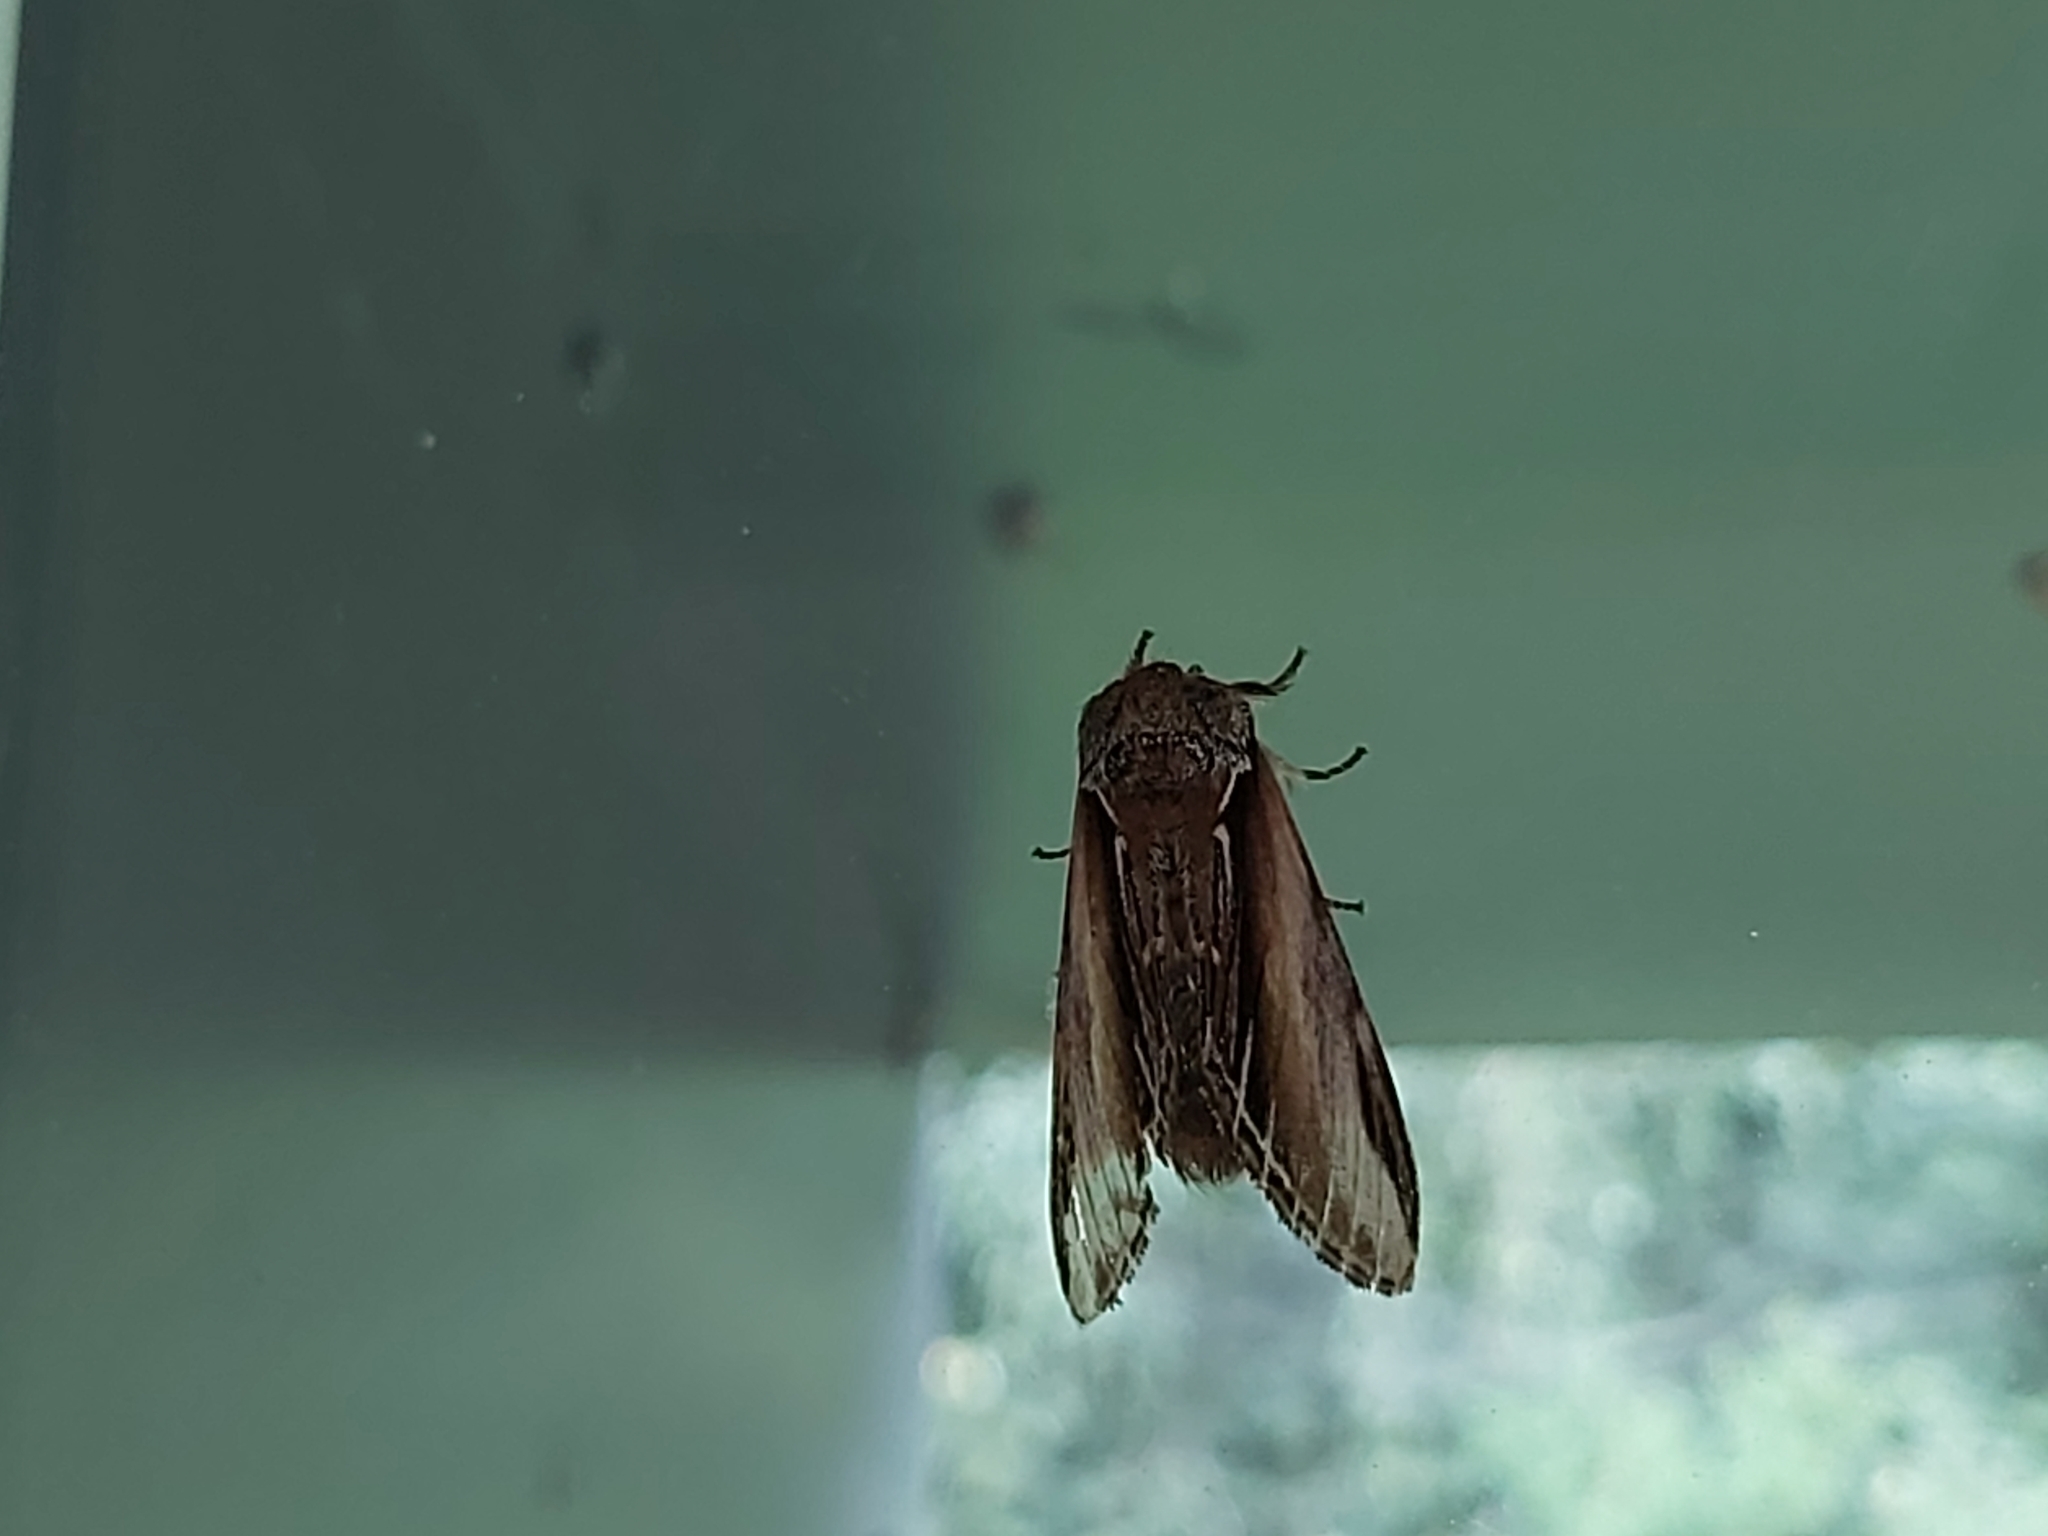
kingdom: Animalia
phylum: Arthropoda
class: Insecta
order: Lepidoptera
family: Notodontidae
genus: Pheosia
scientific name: Pheosia tremula
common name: Swallow prominent
